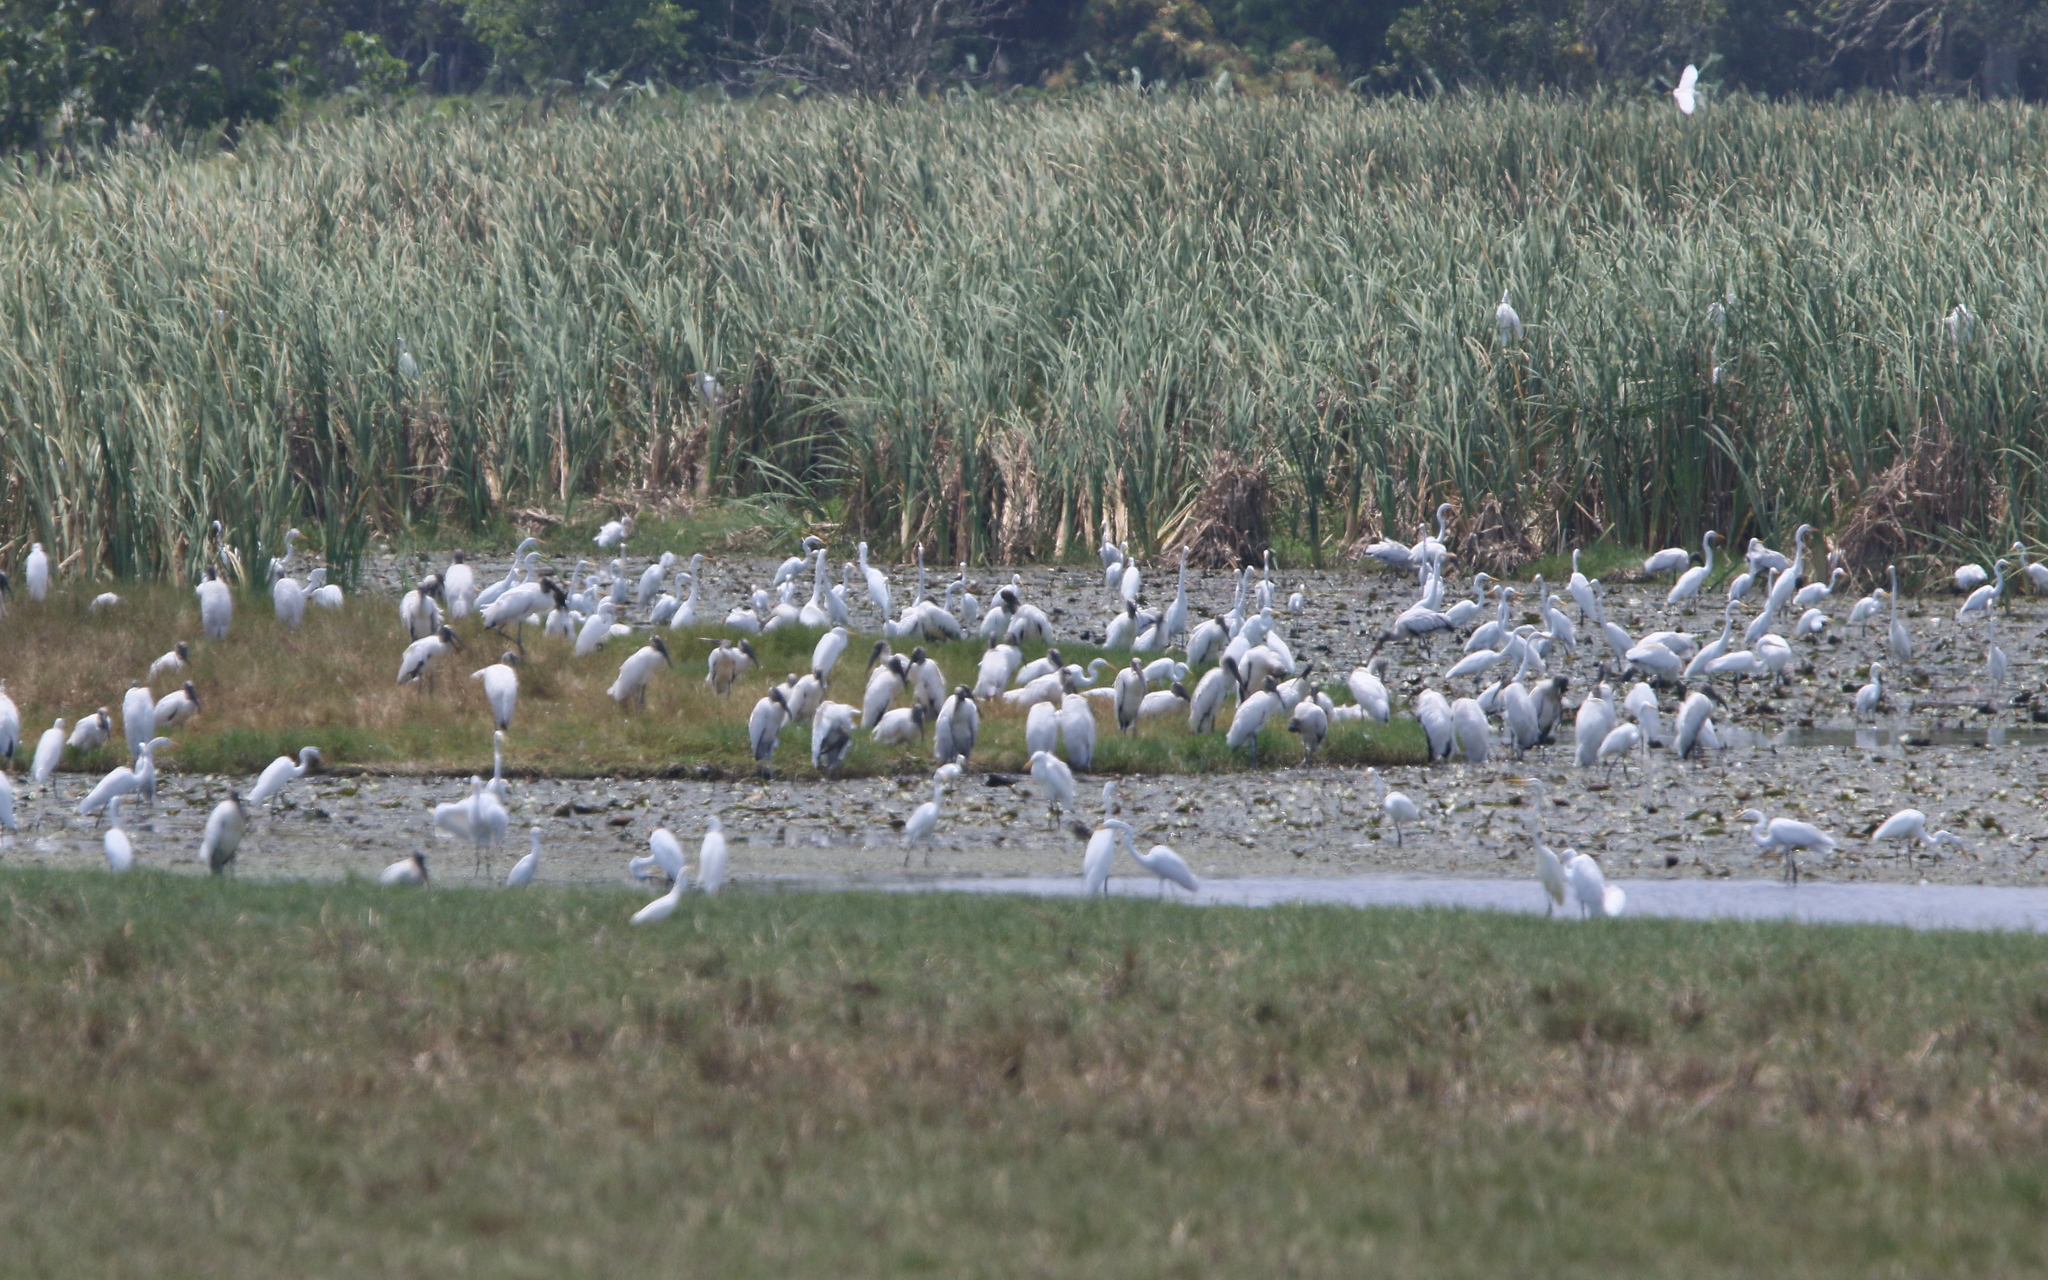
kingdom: Animalia
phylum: Chordata
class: Aves
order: Pelecaniformes
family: Ardeidae
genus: Ardea
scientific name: Ardea alba
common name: Great egret
